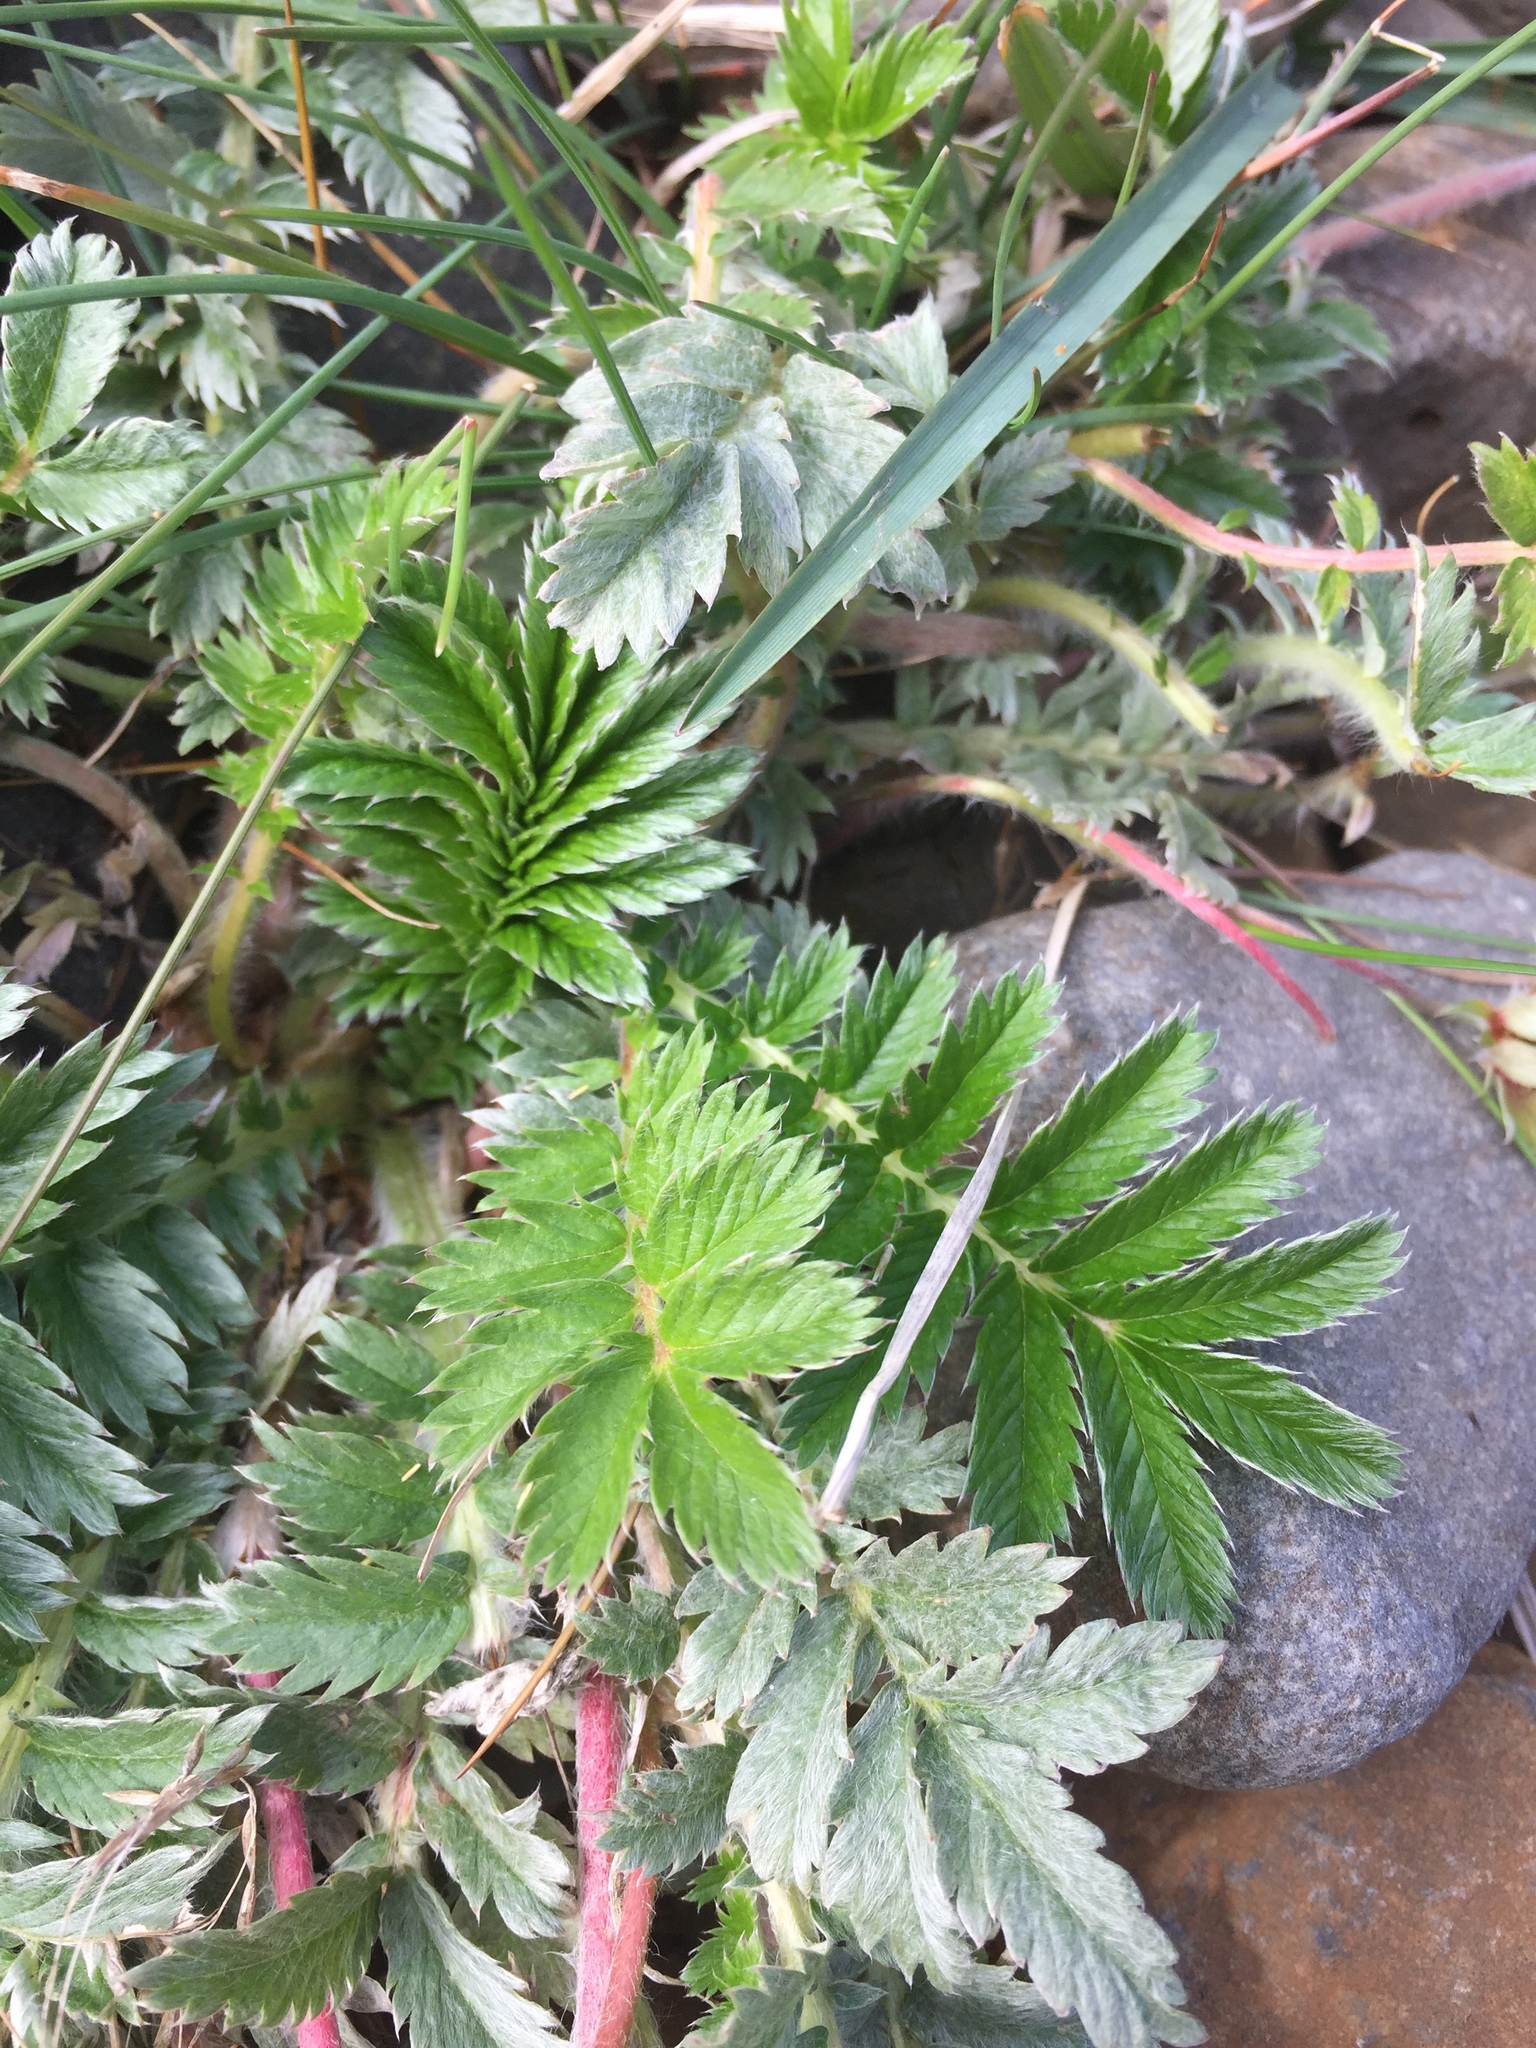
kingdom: Plantae
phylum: Tracheophyta
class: Magnoliopsida
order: Rosales
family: Rosaceae
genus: Argentina
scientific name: Argentina anserina
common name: Common silverweed
